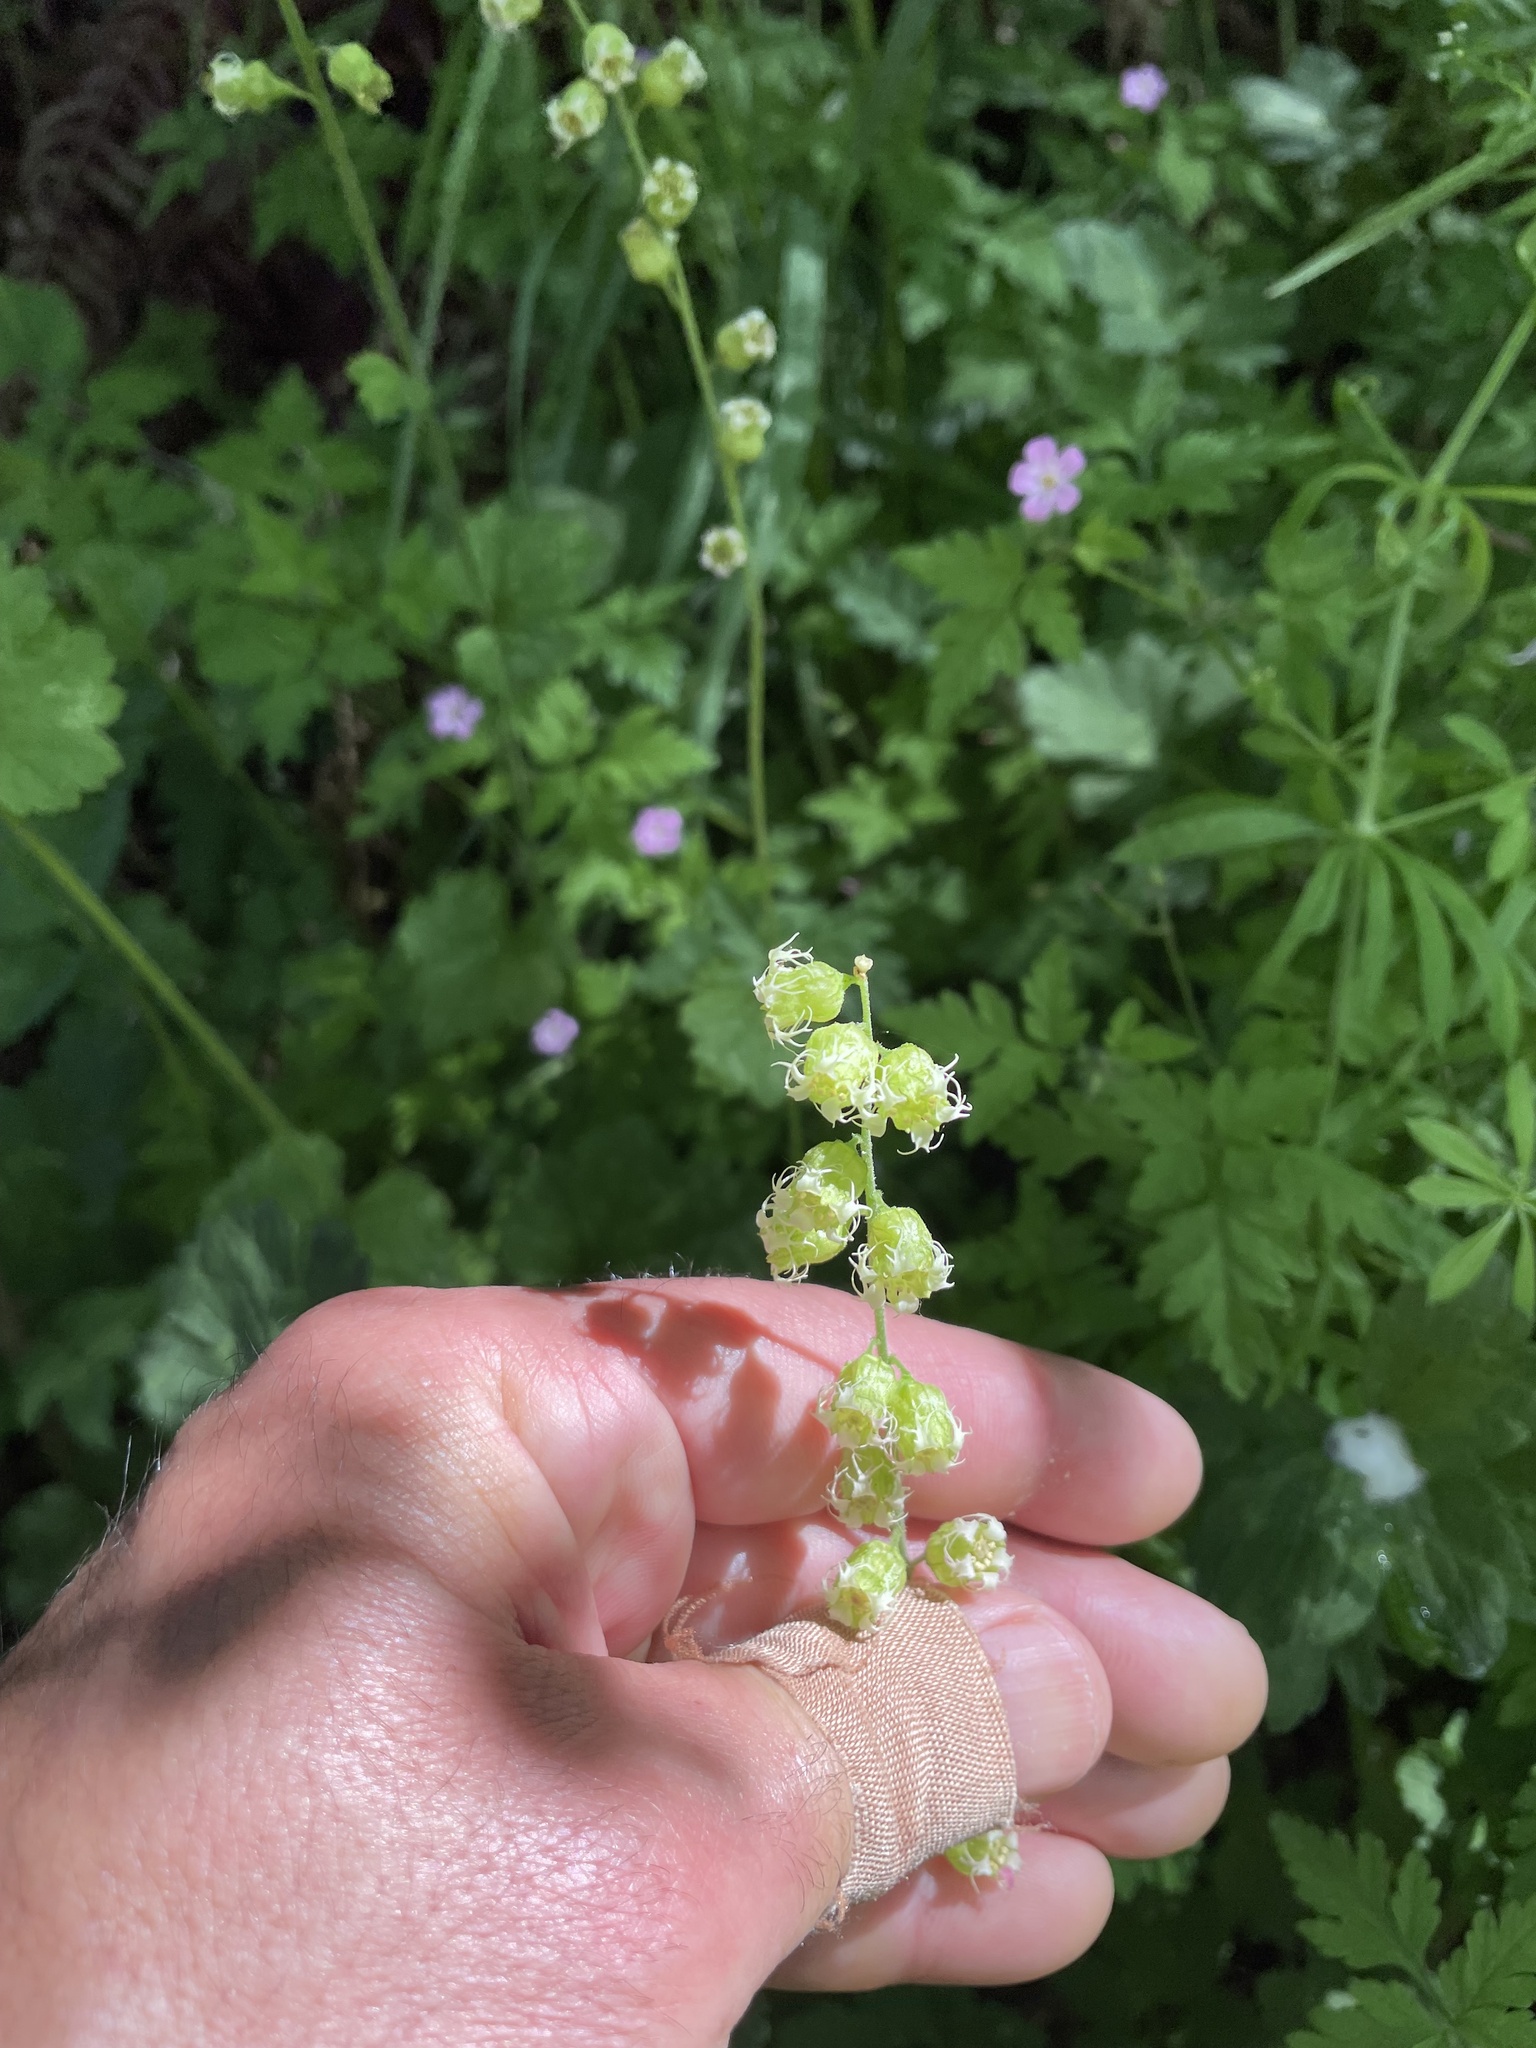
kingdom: Plantae
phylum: Tracheophyta
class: Magnoliopsida
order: Saxifragales
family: Saxifragaceae
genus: Tellima
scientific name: Tellima grandiflora
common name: Fringecups
